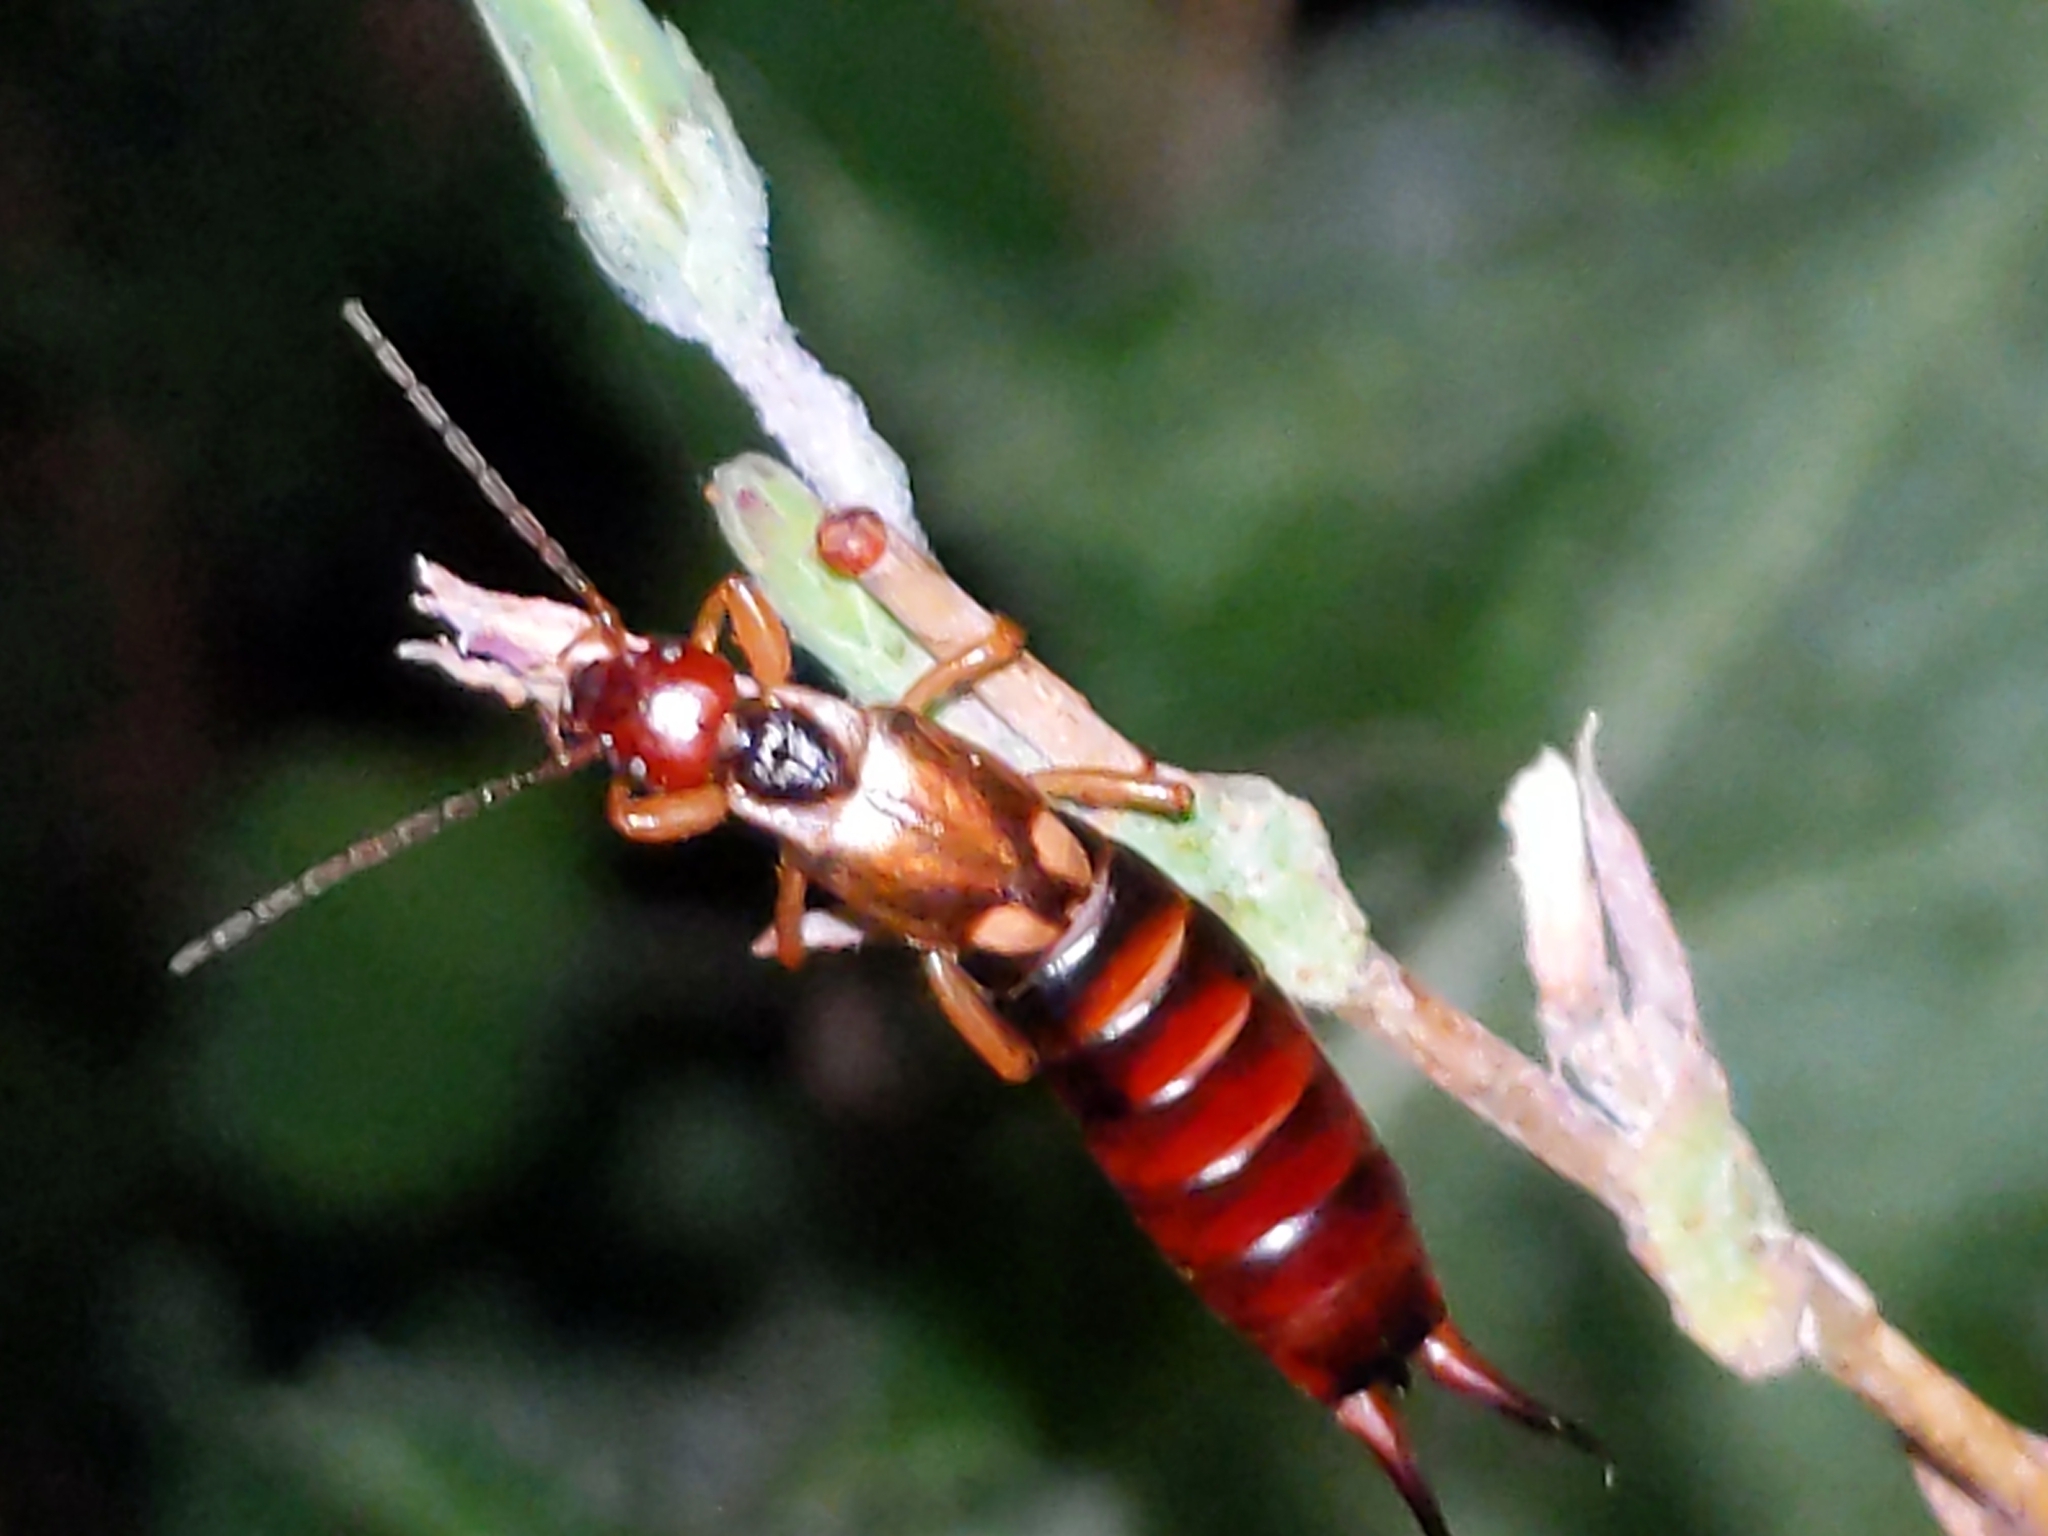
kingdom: Animalia
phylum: Arthropoda
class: Insecta
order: Dermaptera
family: Forficulidae
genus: Forficula
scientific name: Forficula
